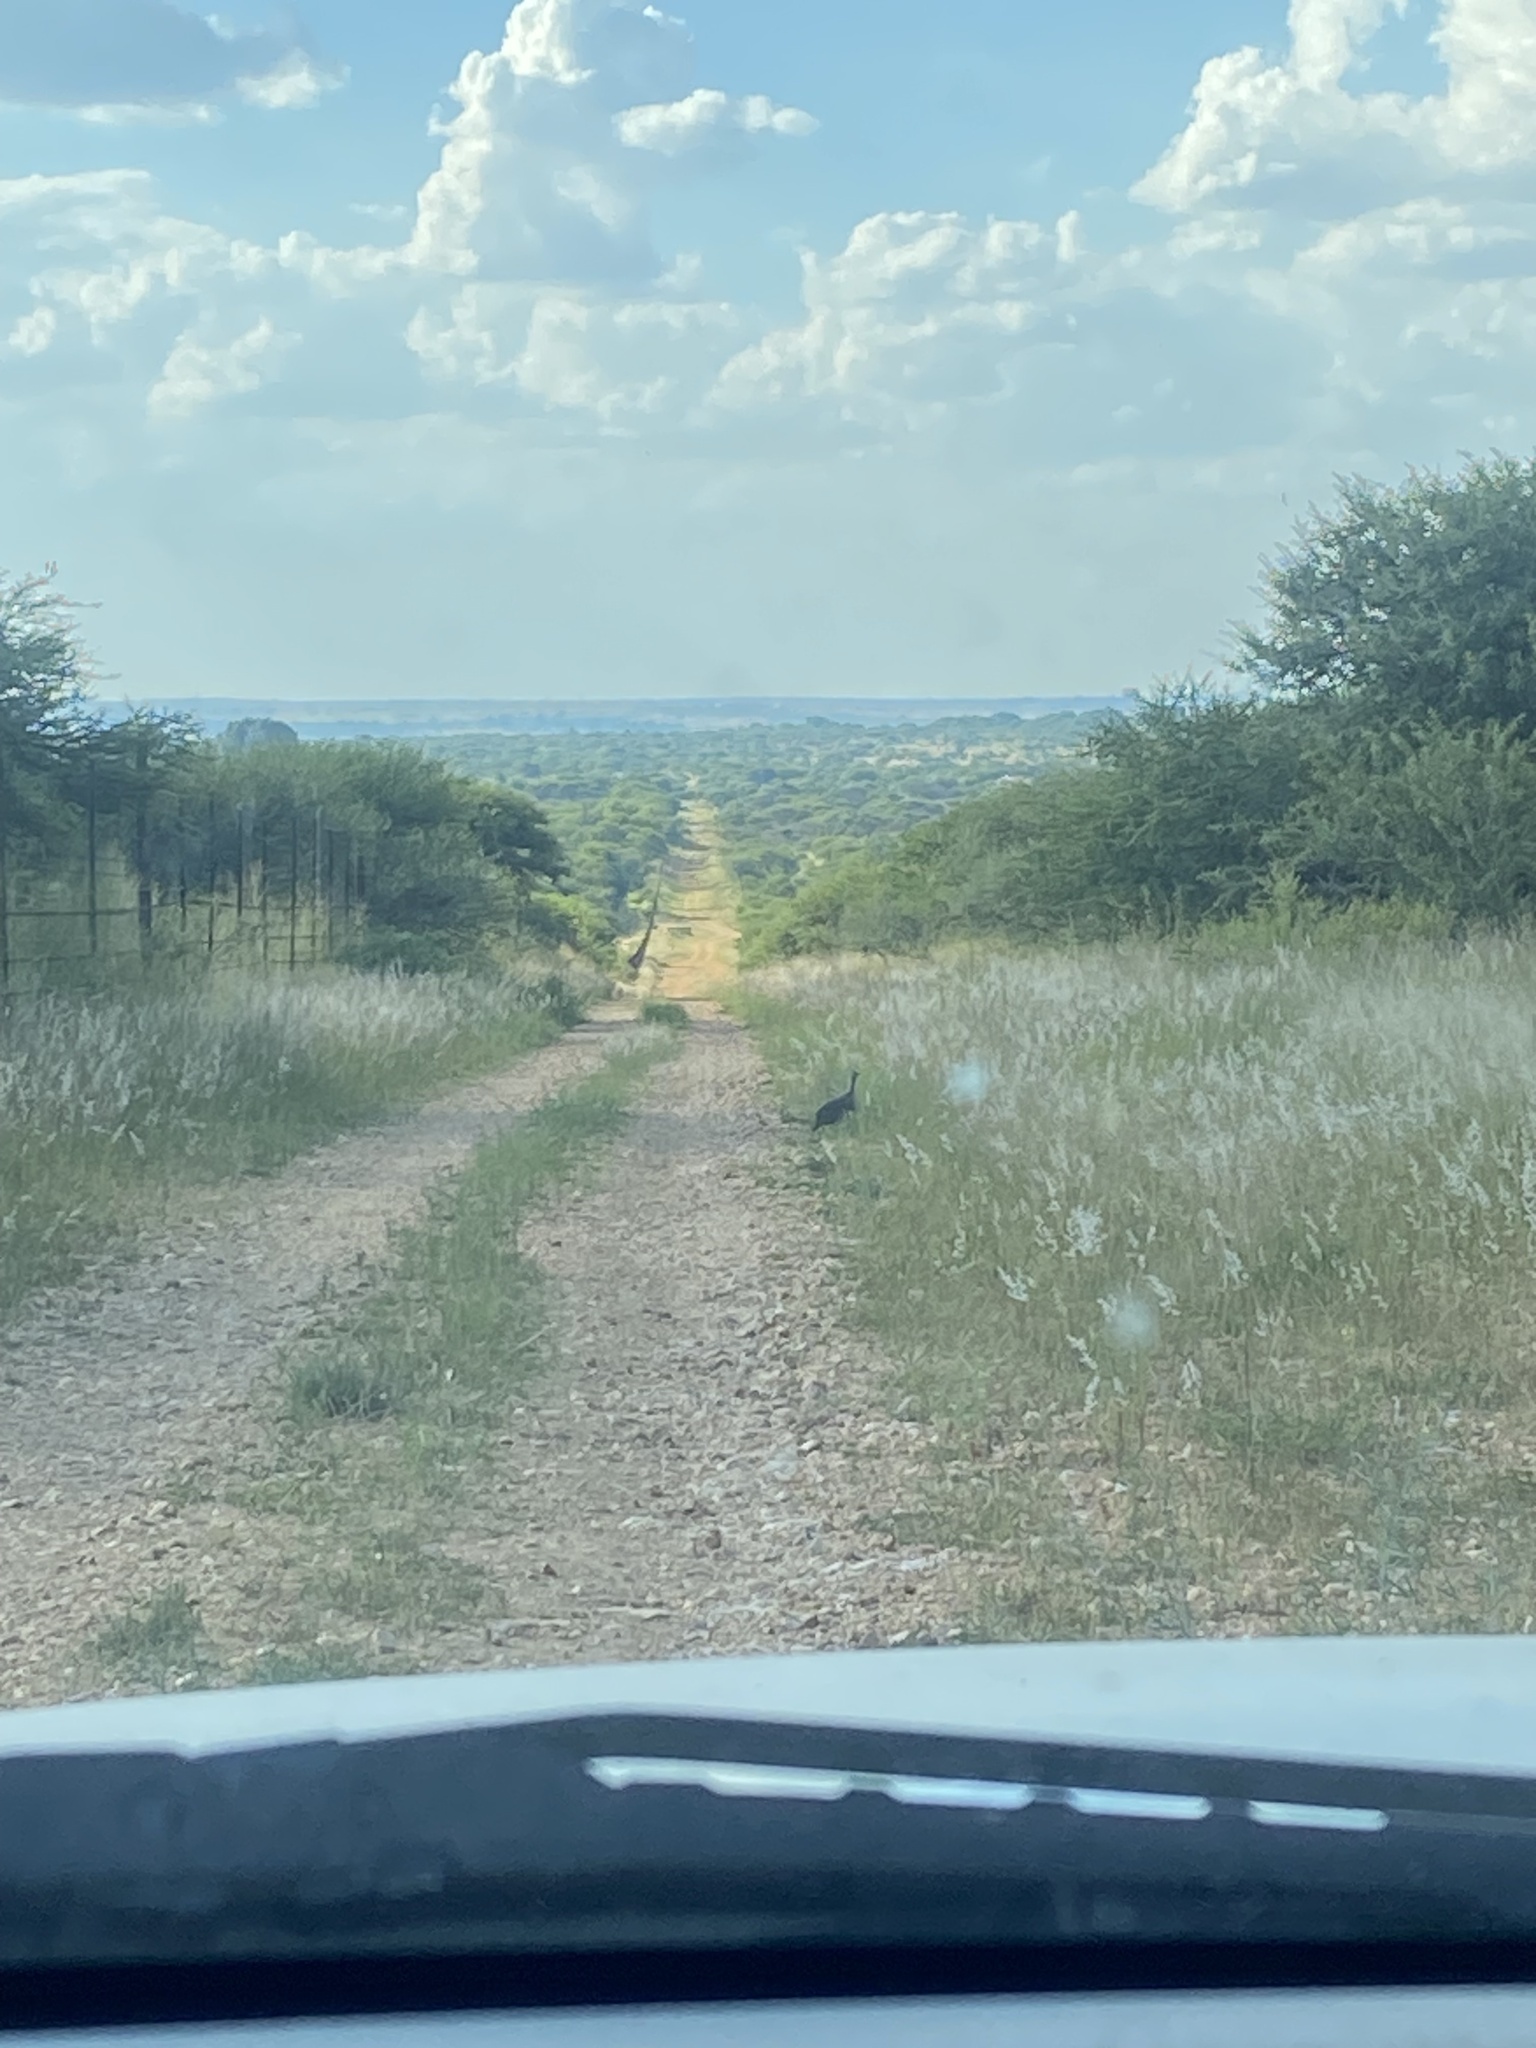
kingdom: Animalia
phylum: Chordata
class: Aves
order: Galliformes
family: Numididae
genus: Numida
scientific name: Numida meleagris
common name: Helmeted guineafowl
